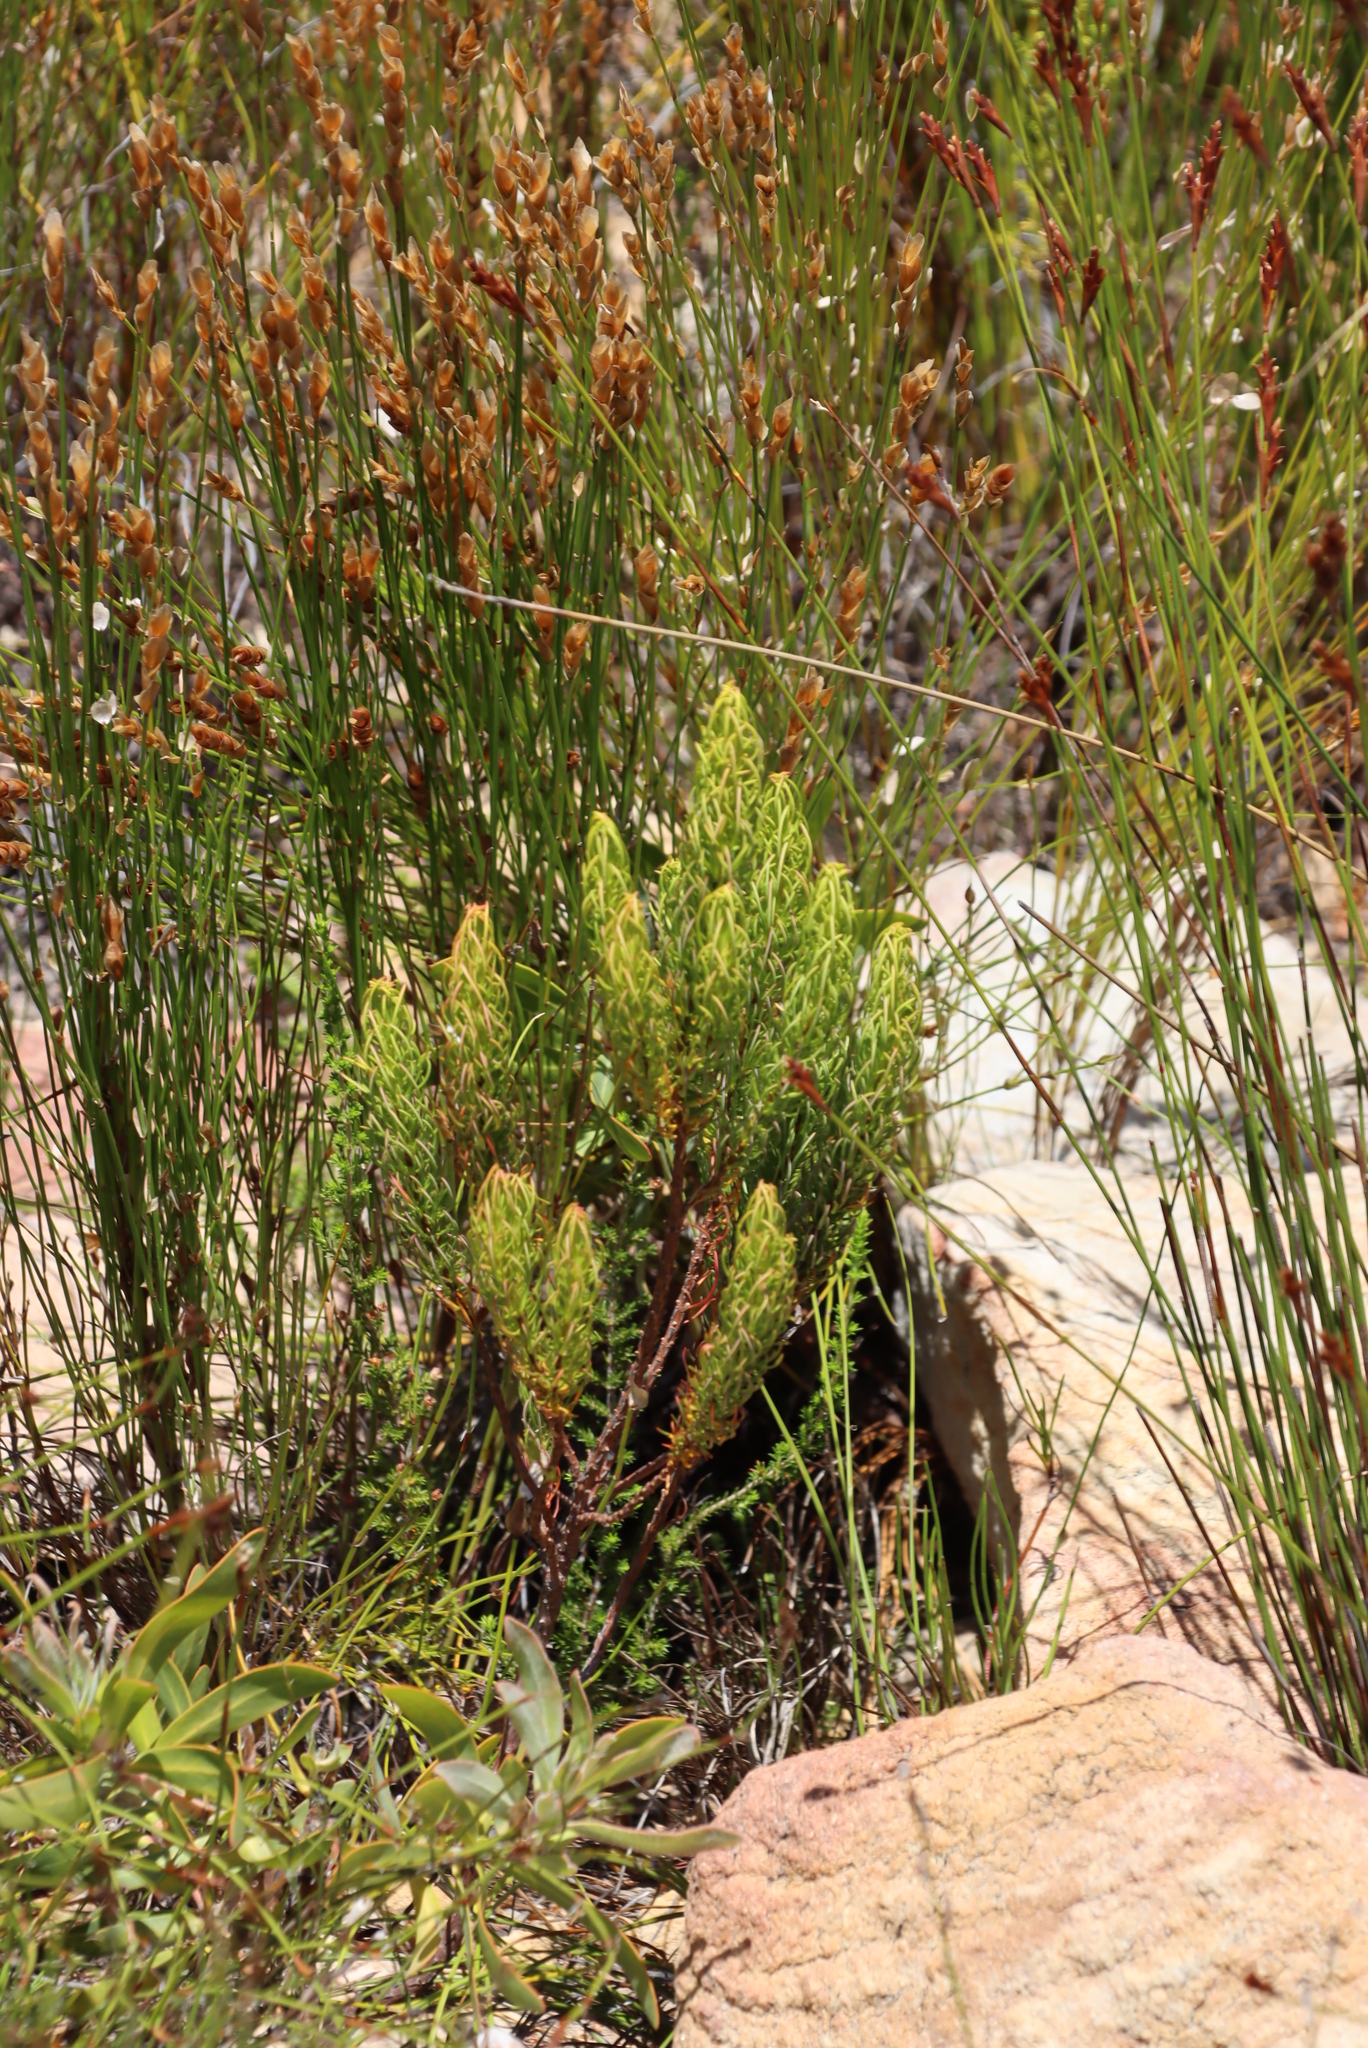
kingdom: Plantae
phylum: Tracheophyta
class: Magnoliopsida
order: Ericales
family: Ericaceae
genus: Erica
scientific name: Erica plukenetii
